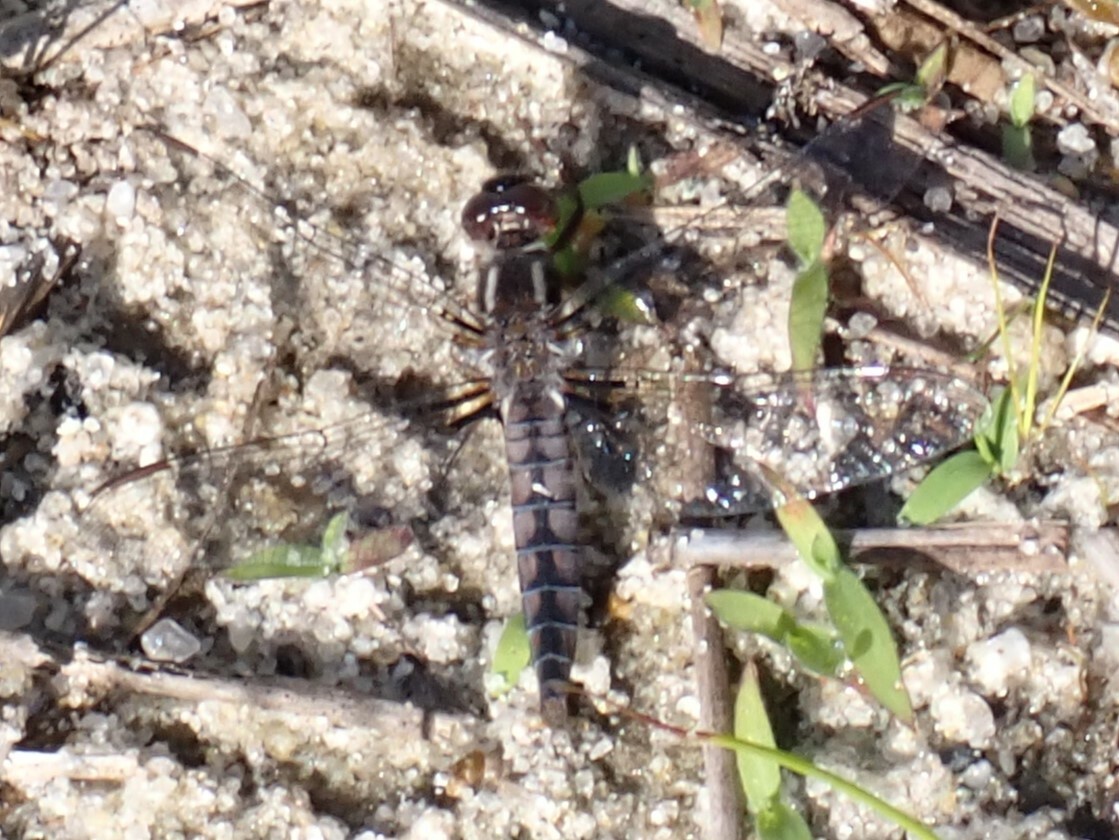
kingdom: Animalia
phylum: Arthropoda
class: Insecta
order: Odonata
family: Libellulidae
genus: Ladona
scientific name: Ladona deplanata
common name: Blue corporal
